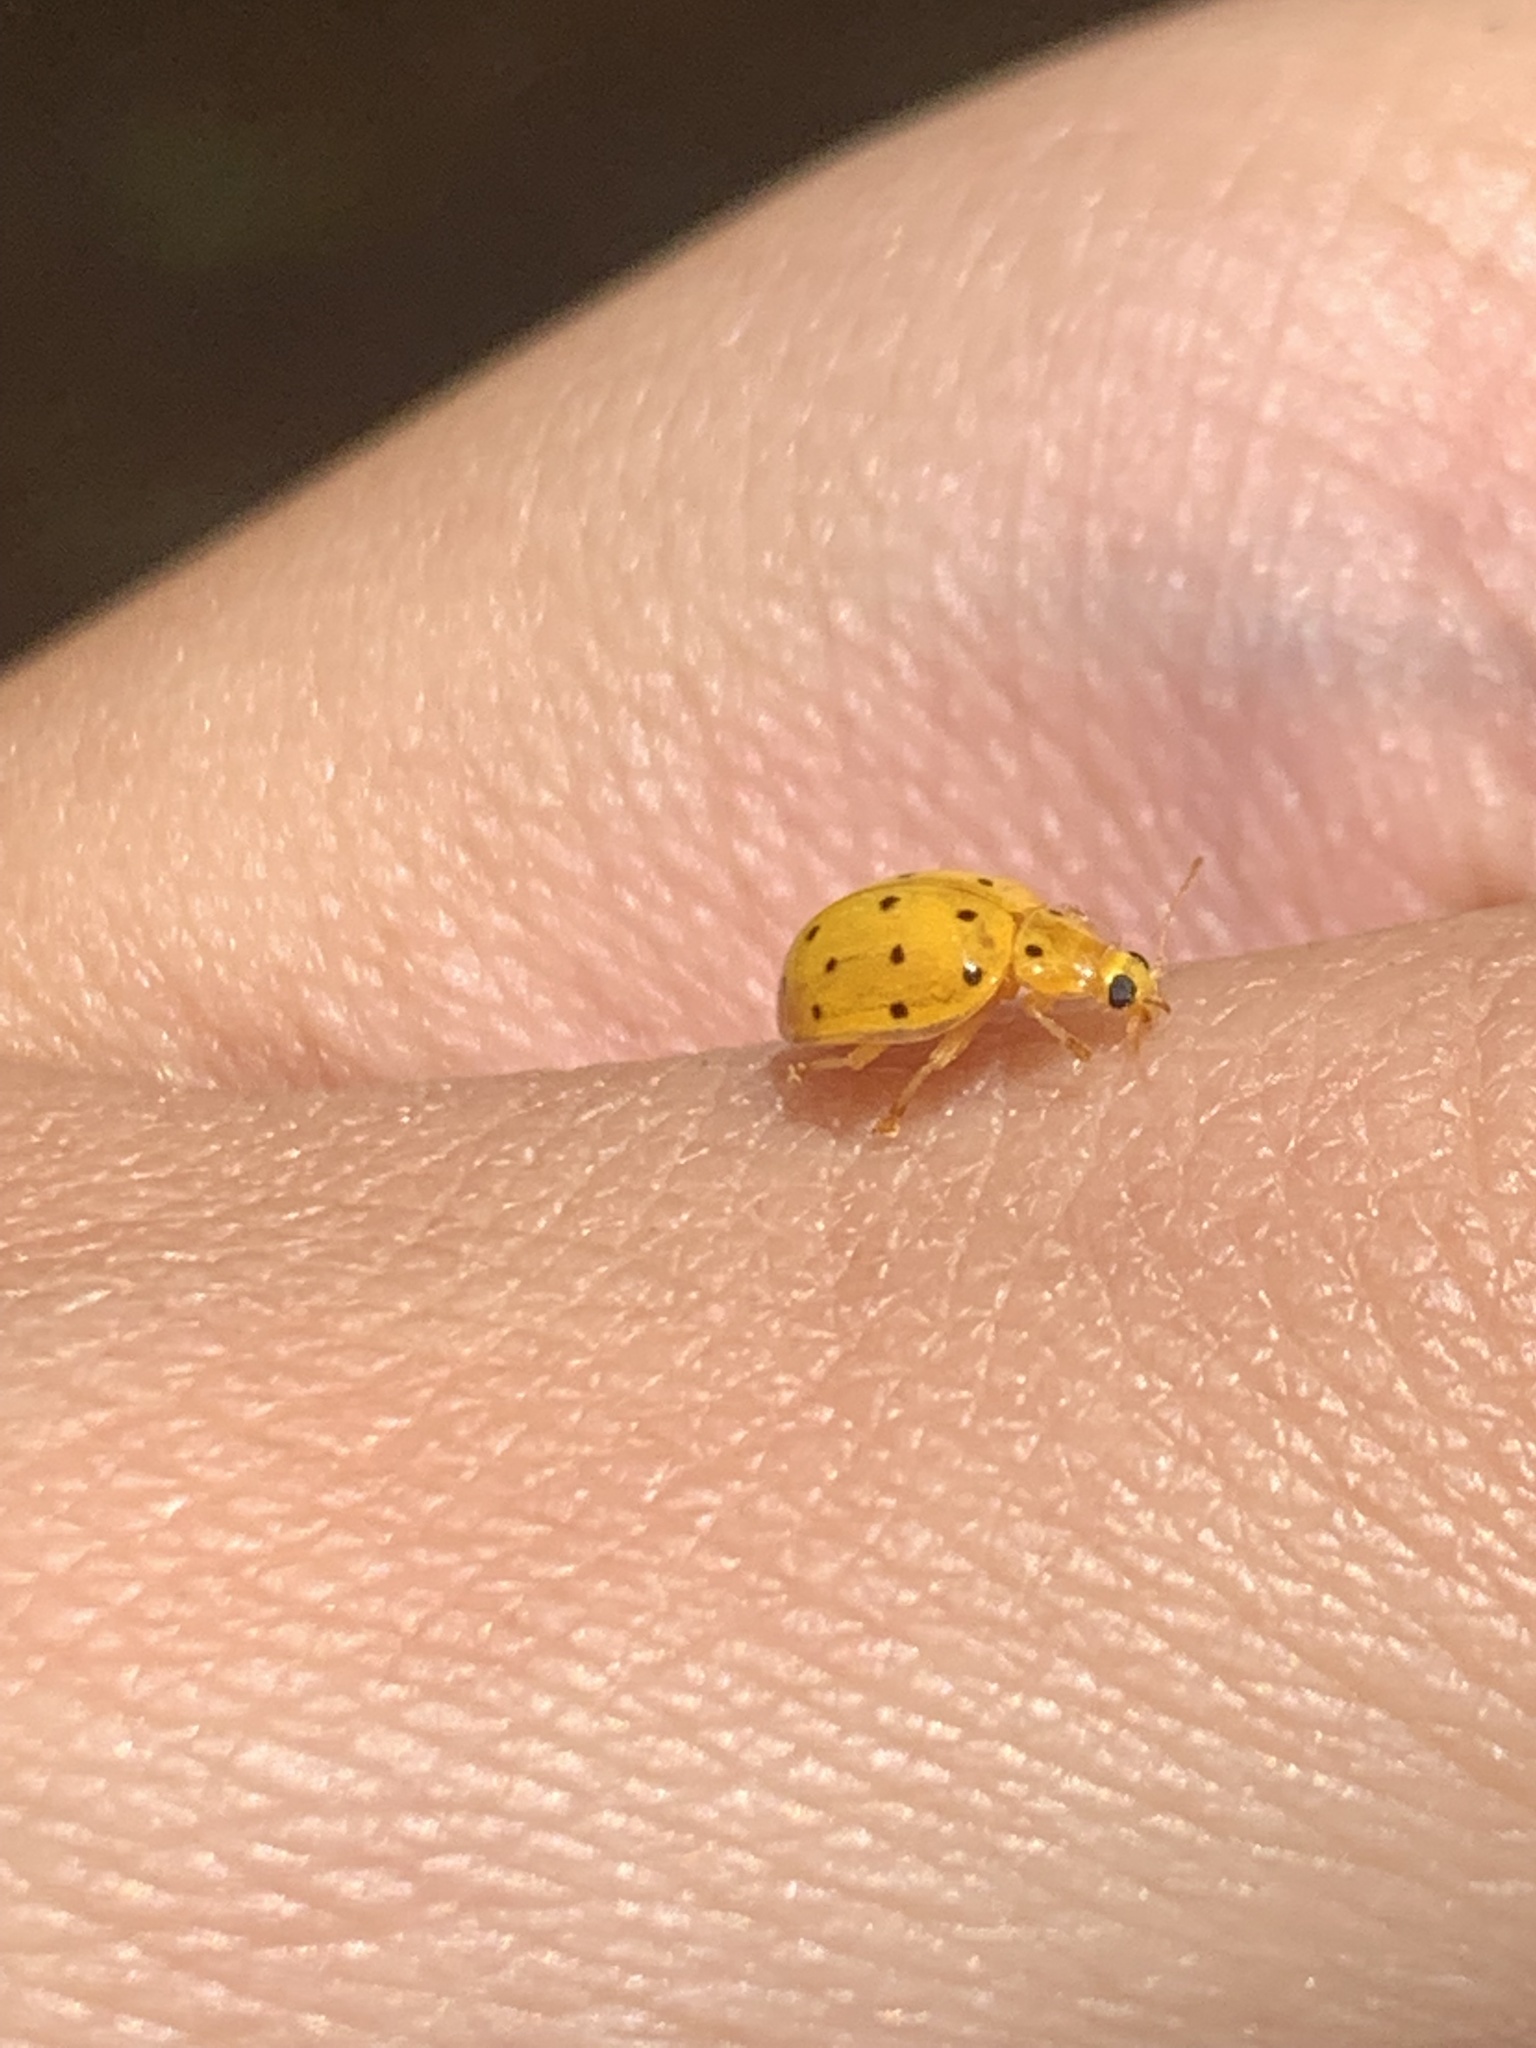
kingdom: Animalia
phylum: Arthropoda
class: Insecta
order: Coleoptera
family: Coccinellidae
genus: Neohalyzia
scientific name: Neohalyzia
